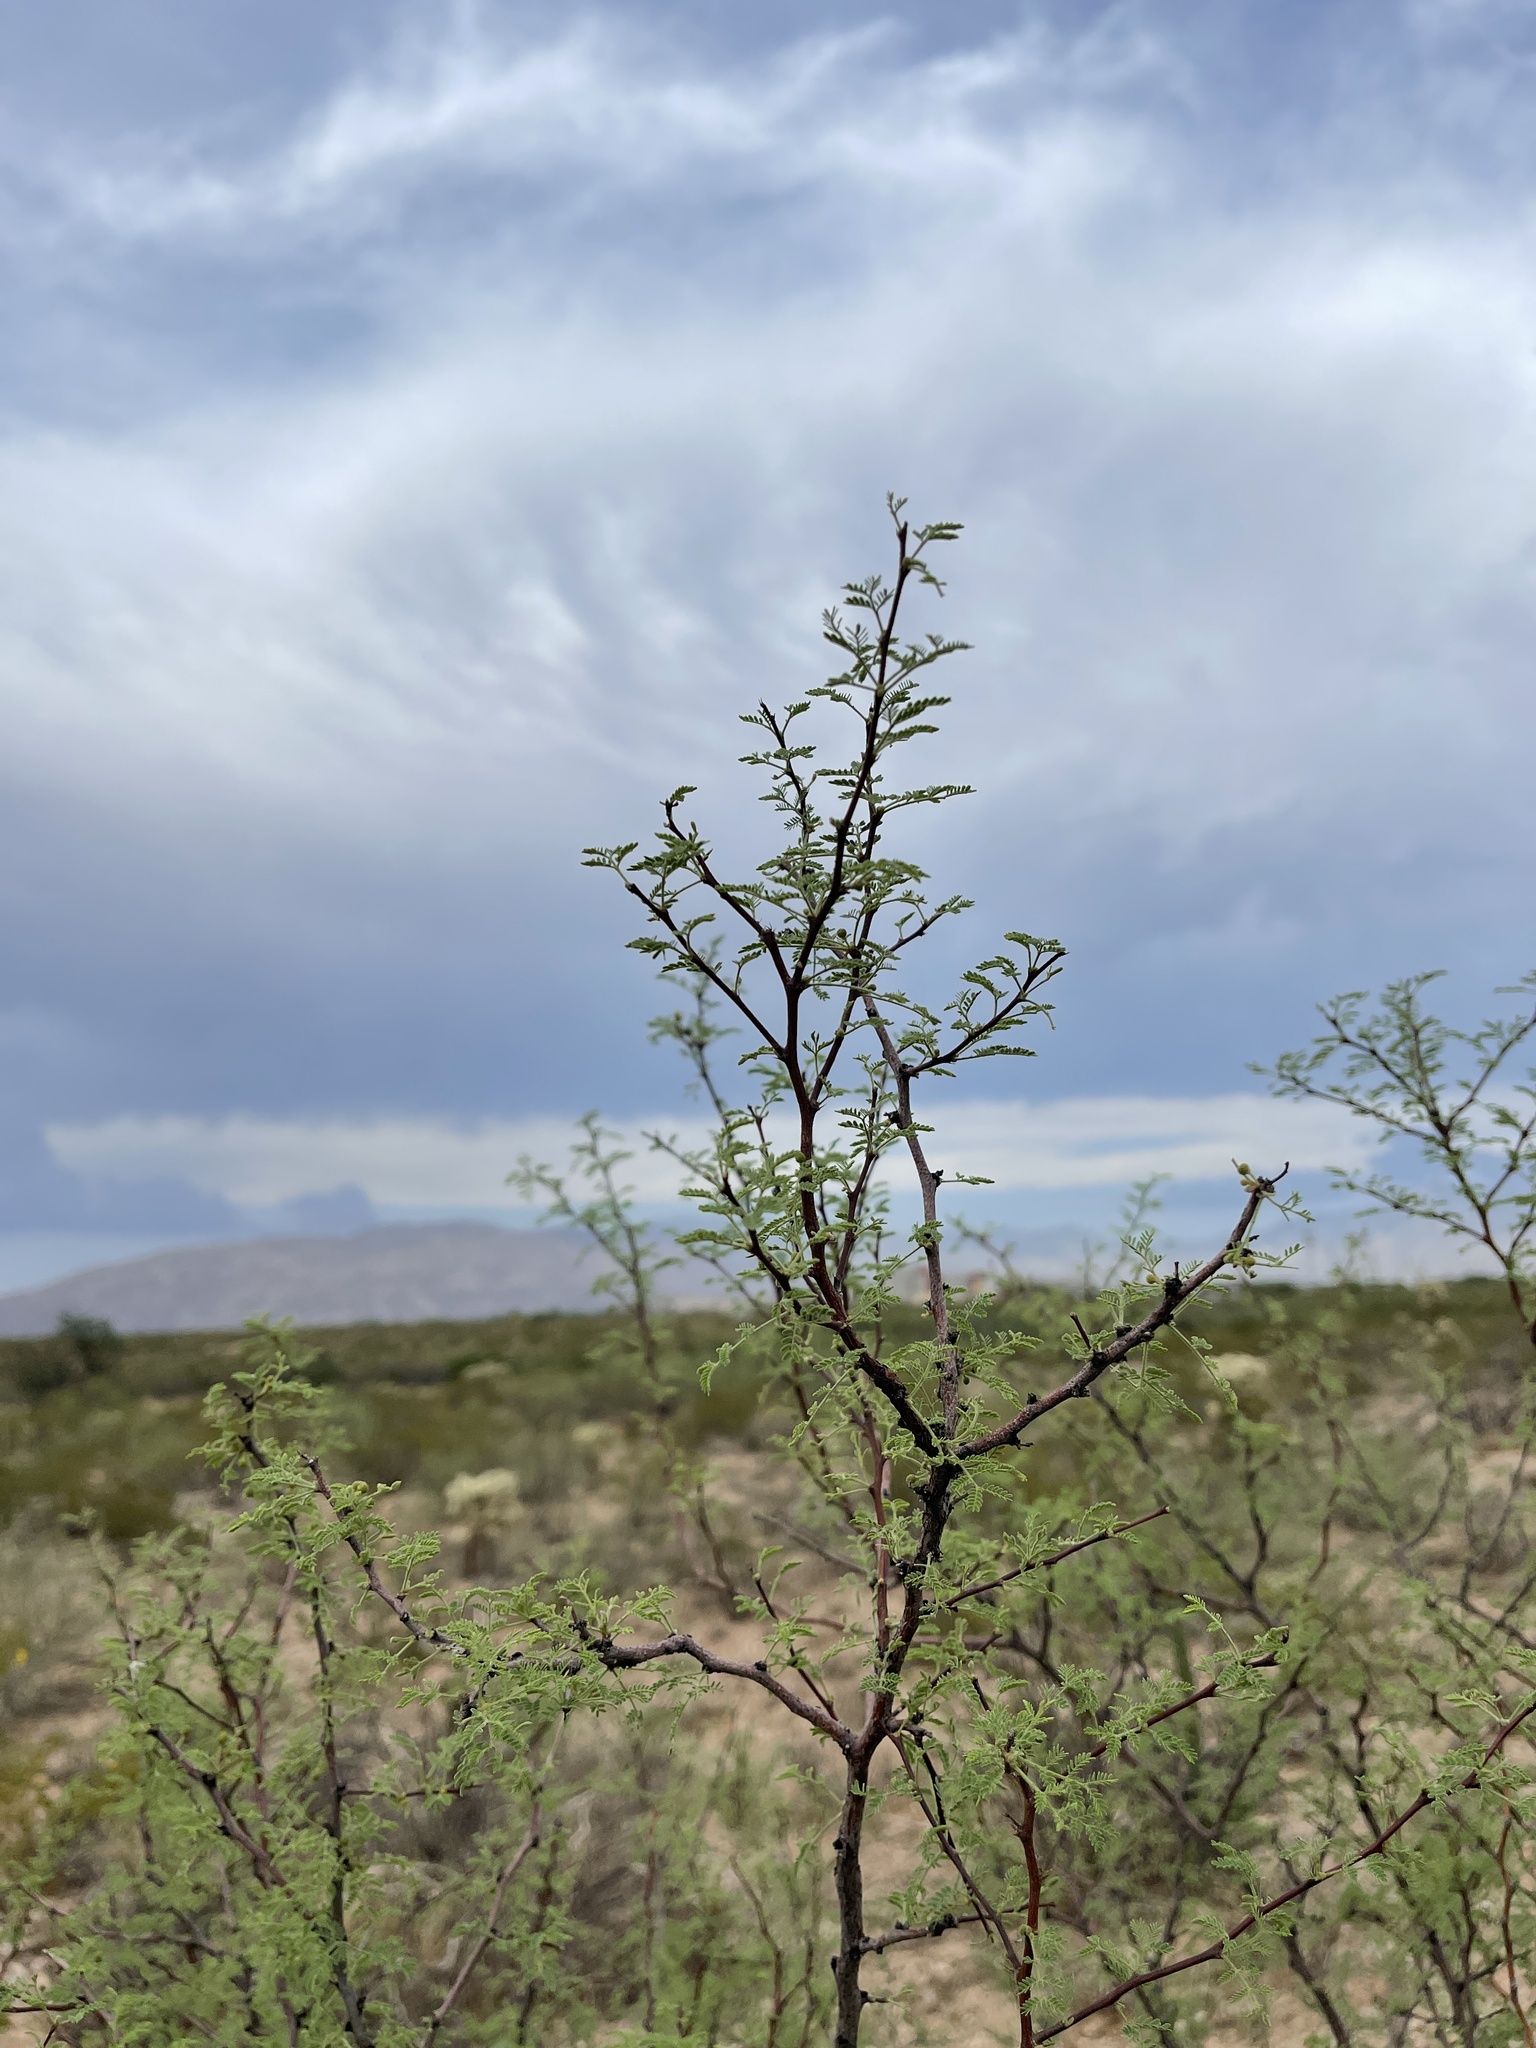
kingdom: Plantae
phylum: Tracheophyta
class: Magnoliopsida
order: Fabales
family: Fabaceae
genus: Vachellia
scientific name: Vachellia constricta
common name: Mescat acacia
